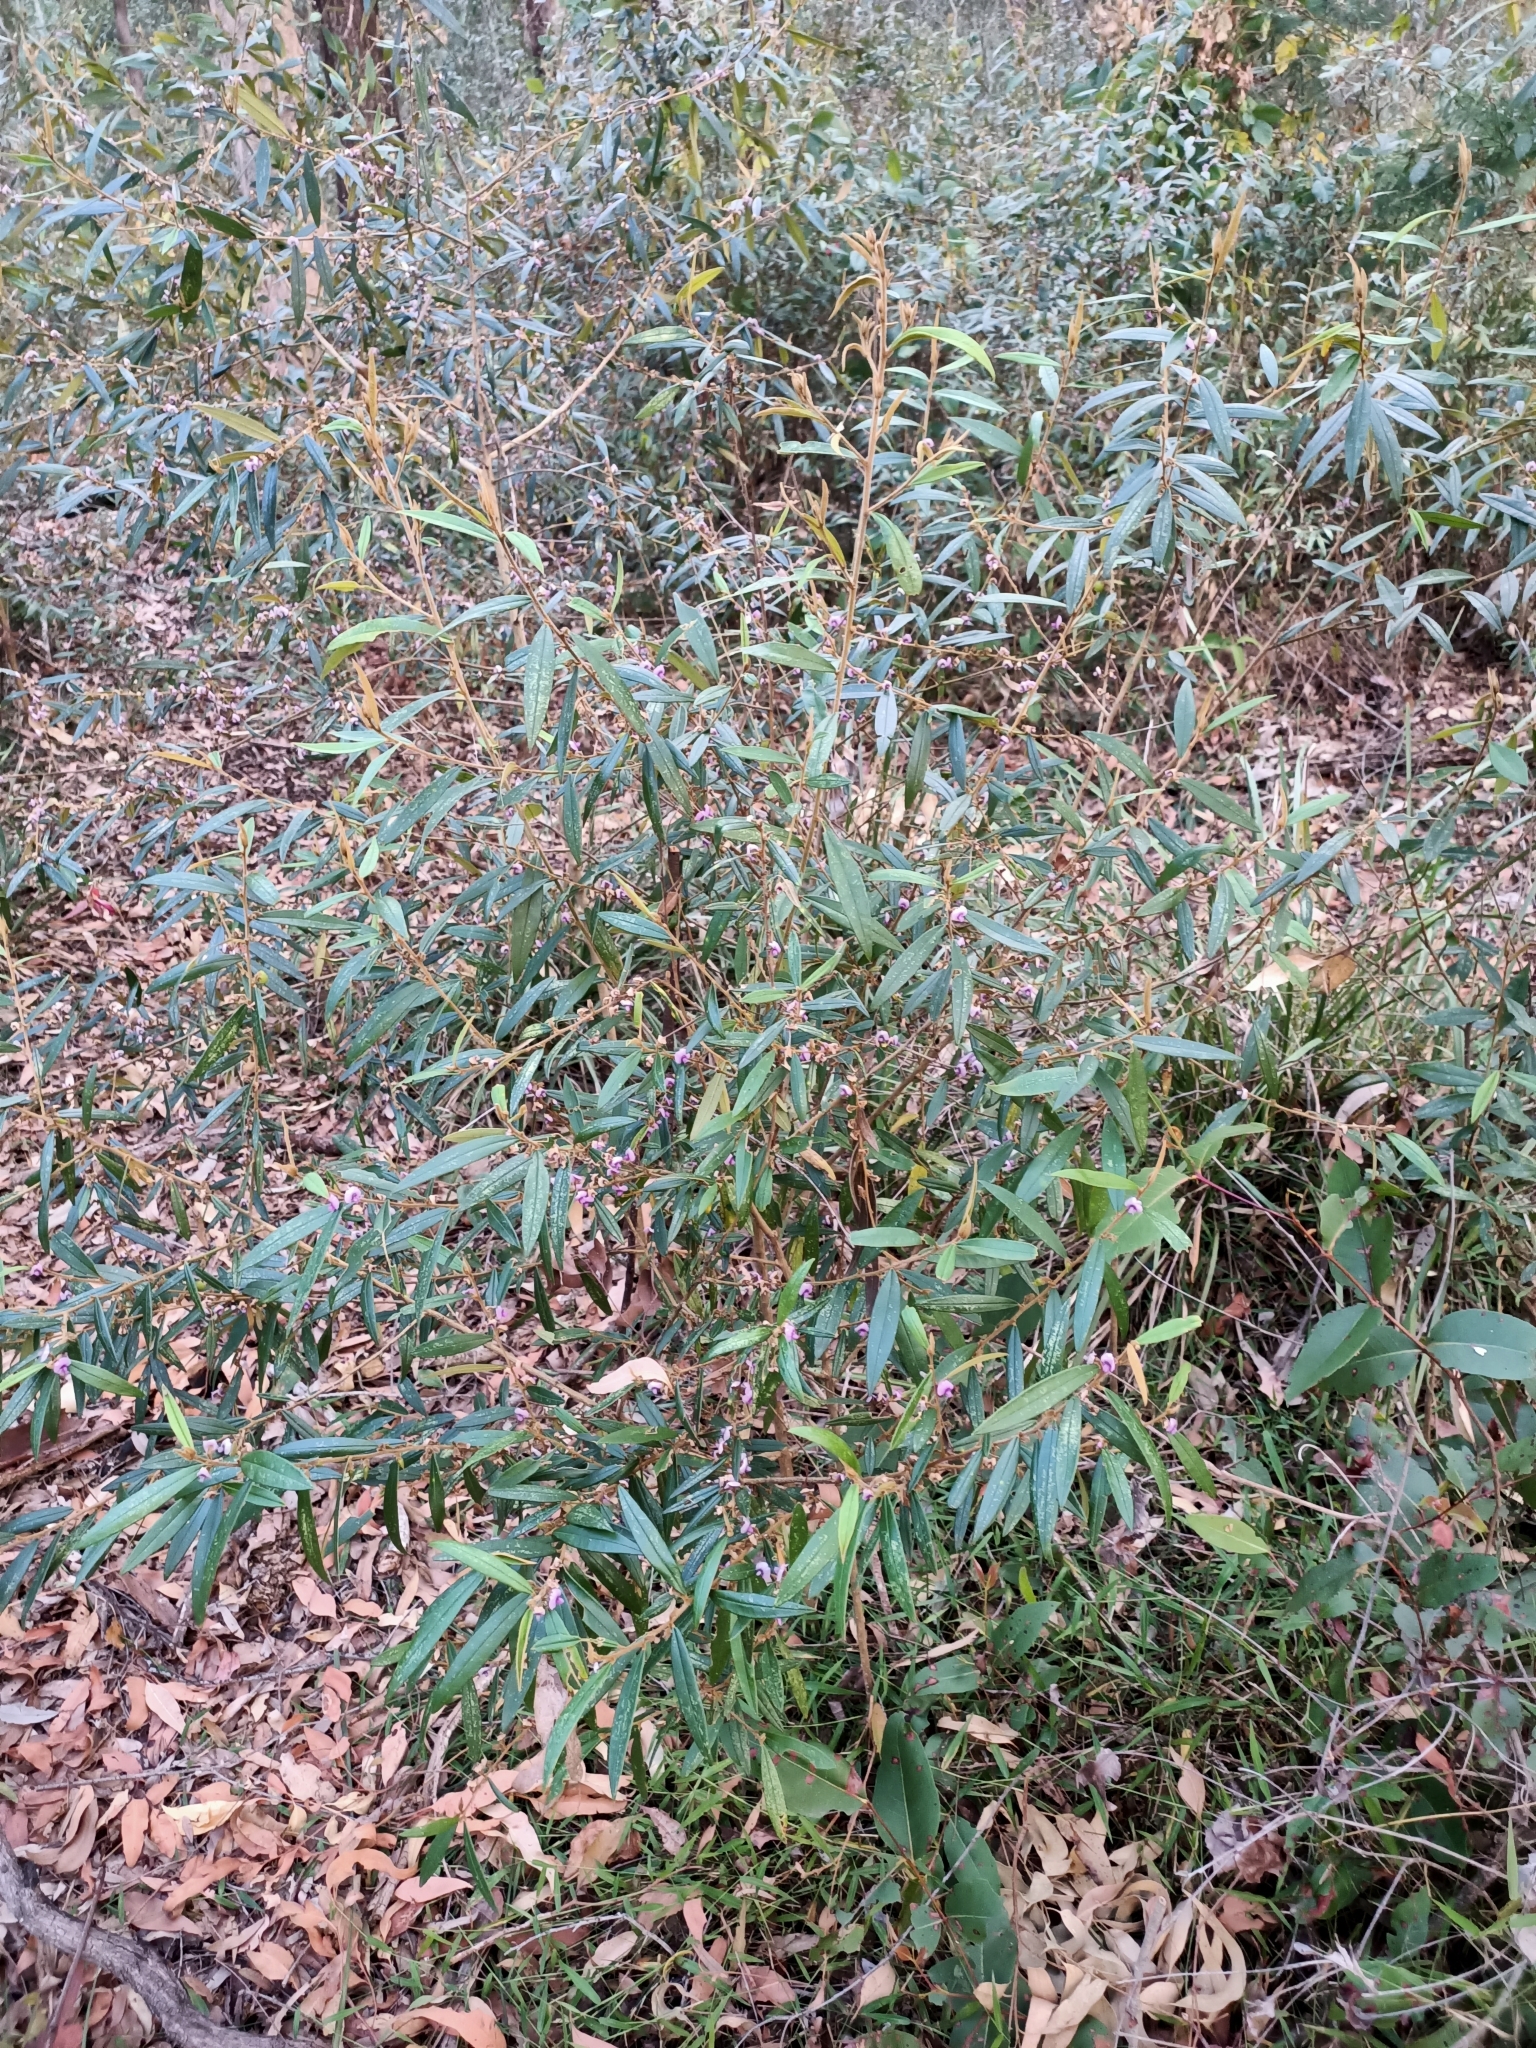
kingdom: Plantae
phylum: Tracheophyta
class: Magnoliopsida
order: Fabales
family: Fabaceae
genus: Hovea
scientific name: Hovea acutifolia
